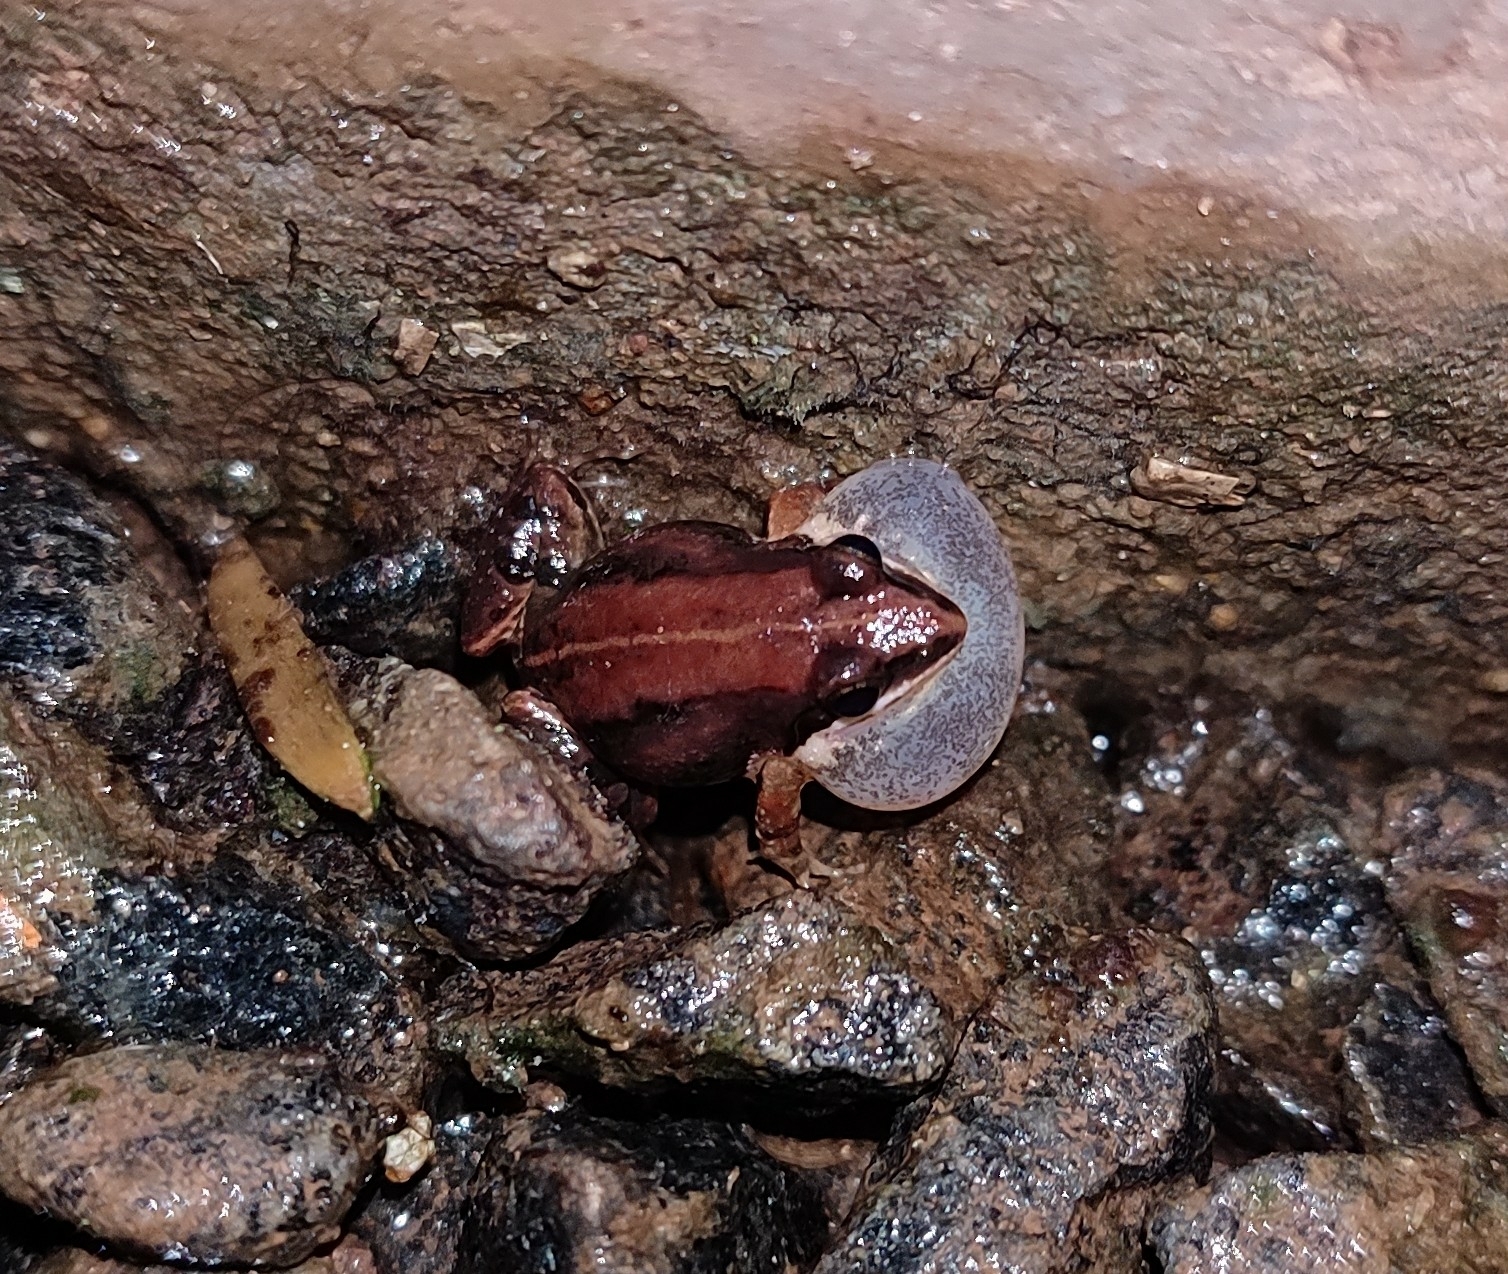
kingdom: Animalia
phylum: Chordata
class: Amphibia
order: Anura
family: Dicroglossidae
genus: Minervarya
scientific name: Minervarya sahyadris
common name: Minevarya frog
